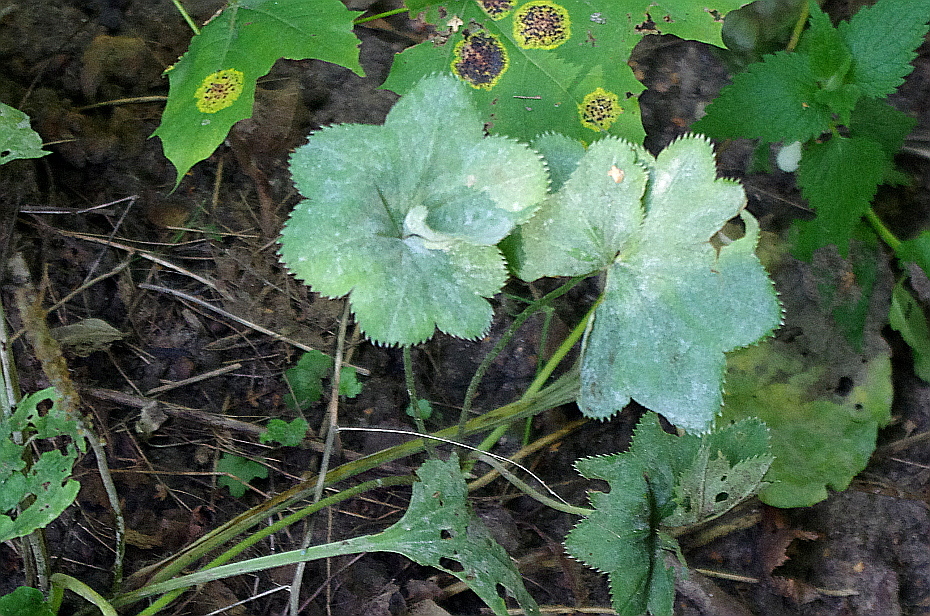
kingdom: Plantae
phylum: Tracheophyta
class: Magnoliopsida
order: Rosales
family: Rosaceae
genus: Alchemilla
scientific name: Alchemilla
